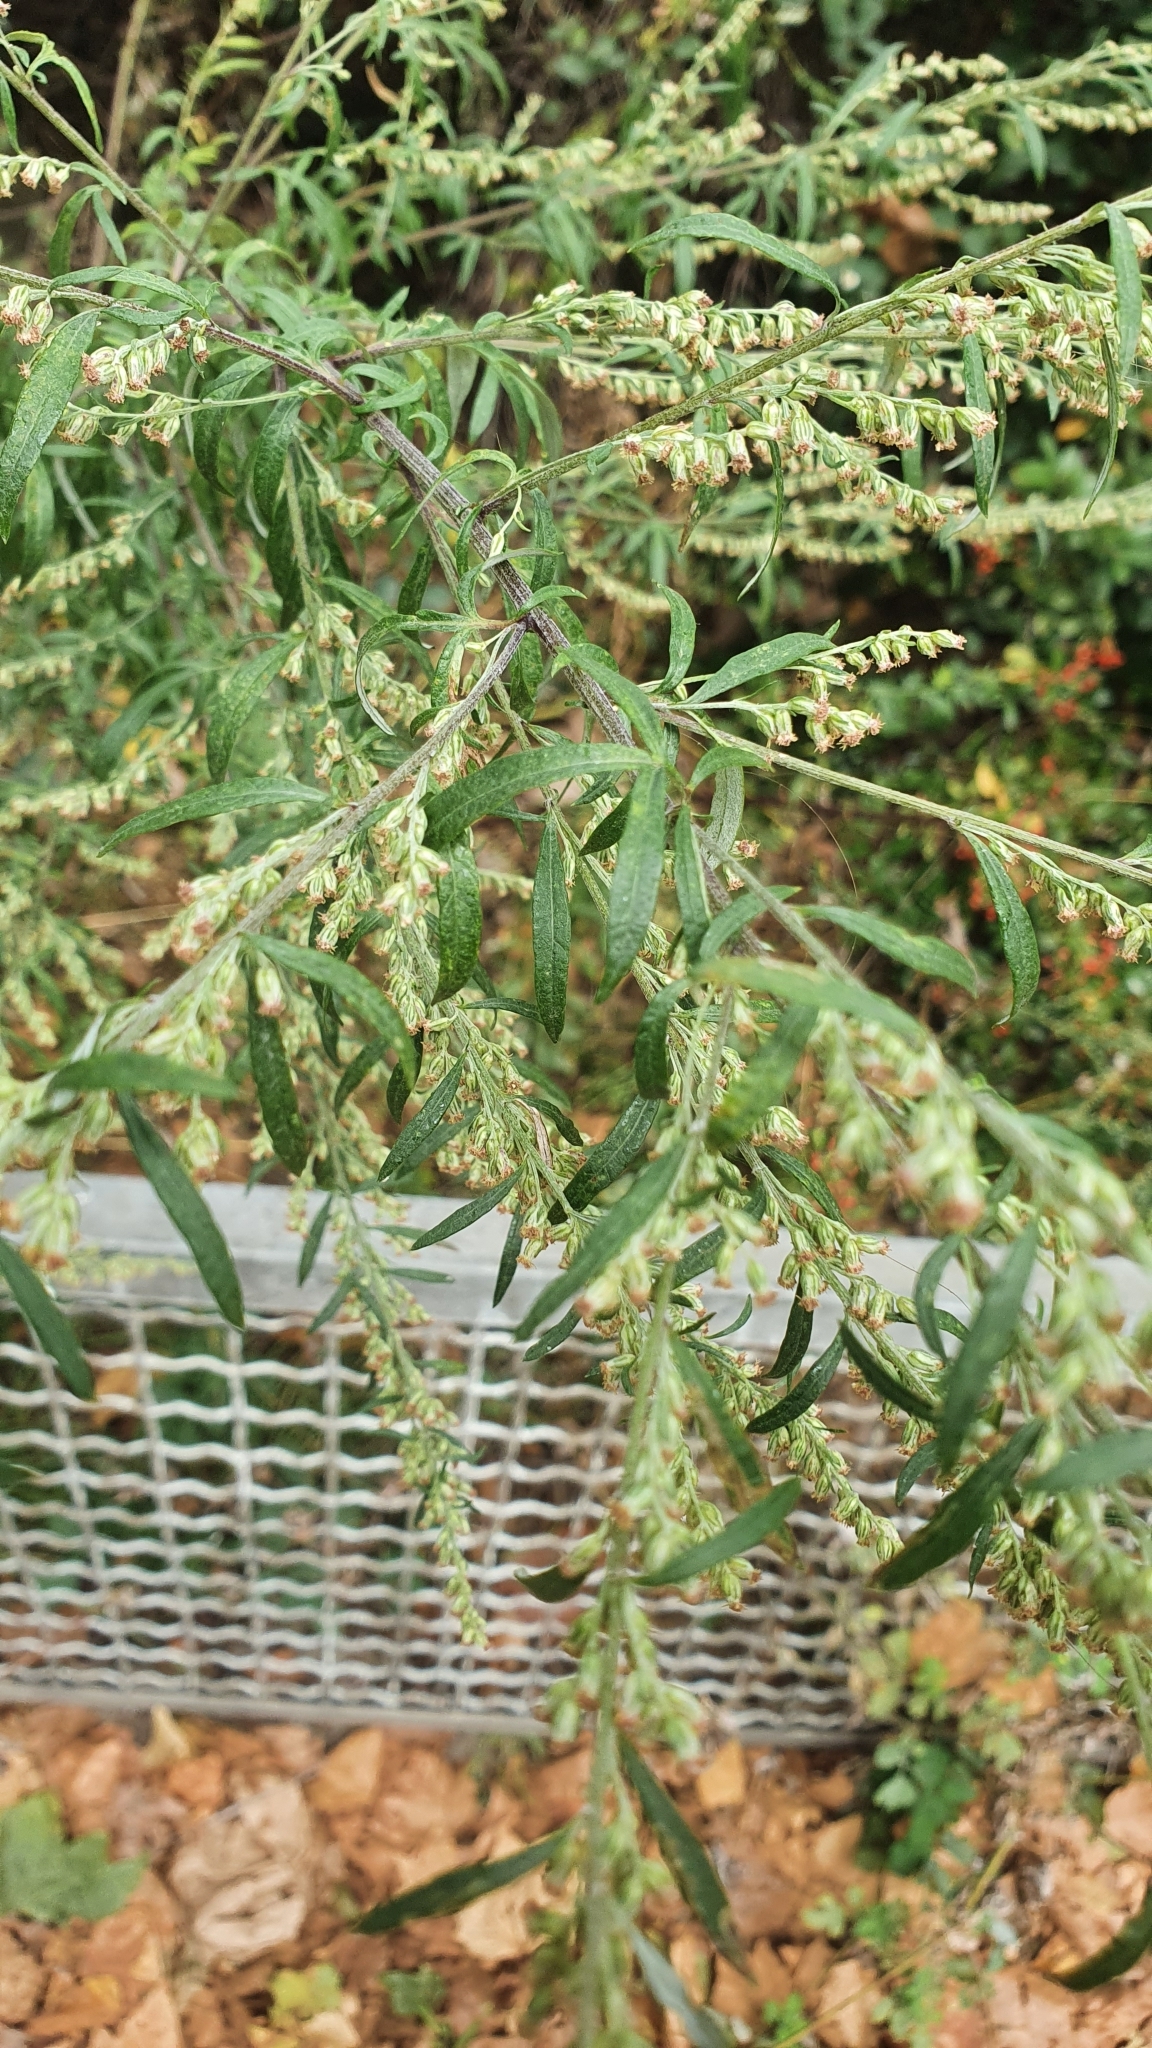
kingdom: Plantae
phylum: Tracheophyta
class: Magnoliopsida
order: Asterales
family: Asteraceae
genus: Artemisia
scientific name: Artemisia vulgaris
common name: Mugwort
